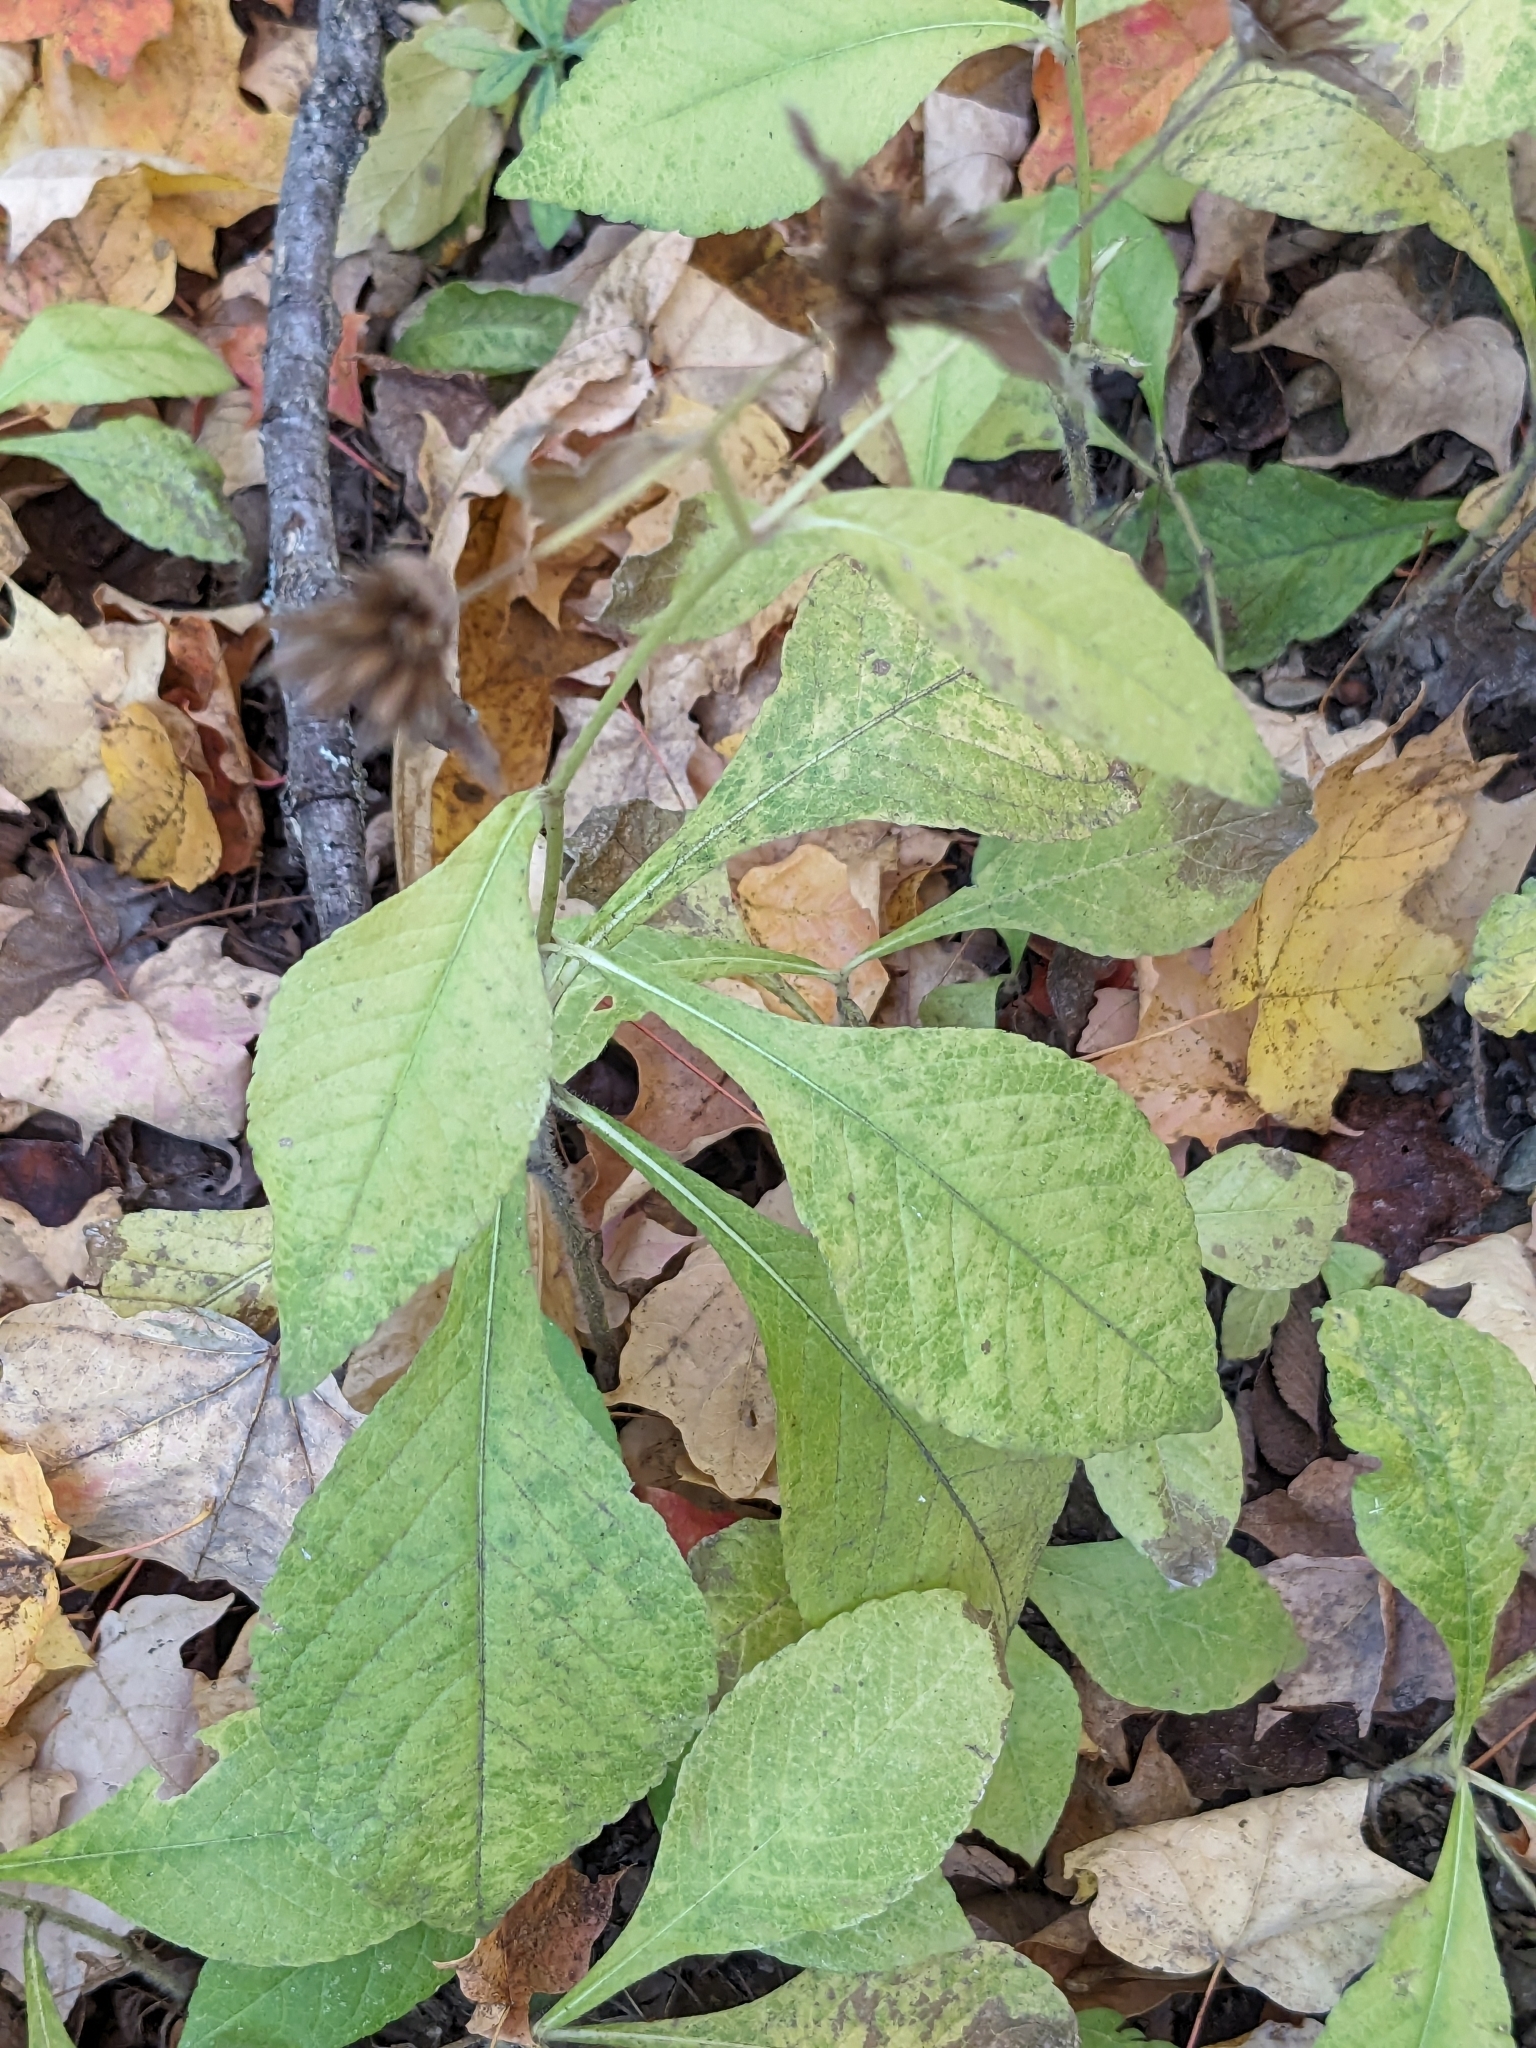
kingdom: Plantae
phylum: Tracheophyta
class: Magnoliopsida
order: Asterales
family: Asteraceae
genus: Elephantopus
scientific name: Elephantopus carolinianus
